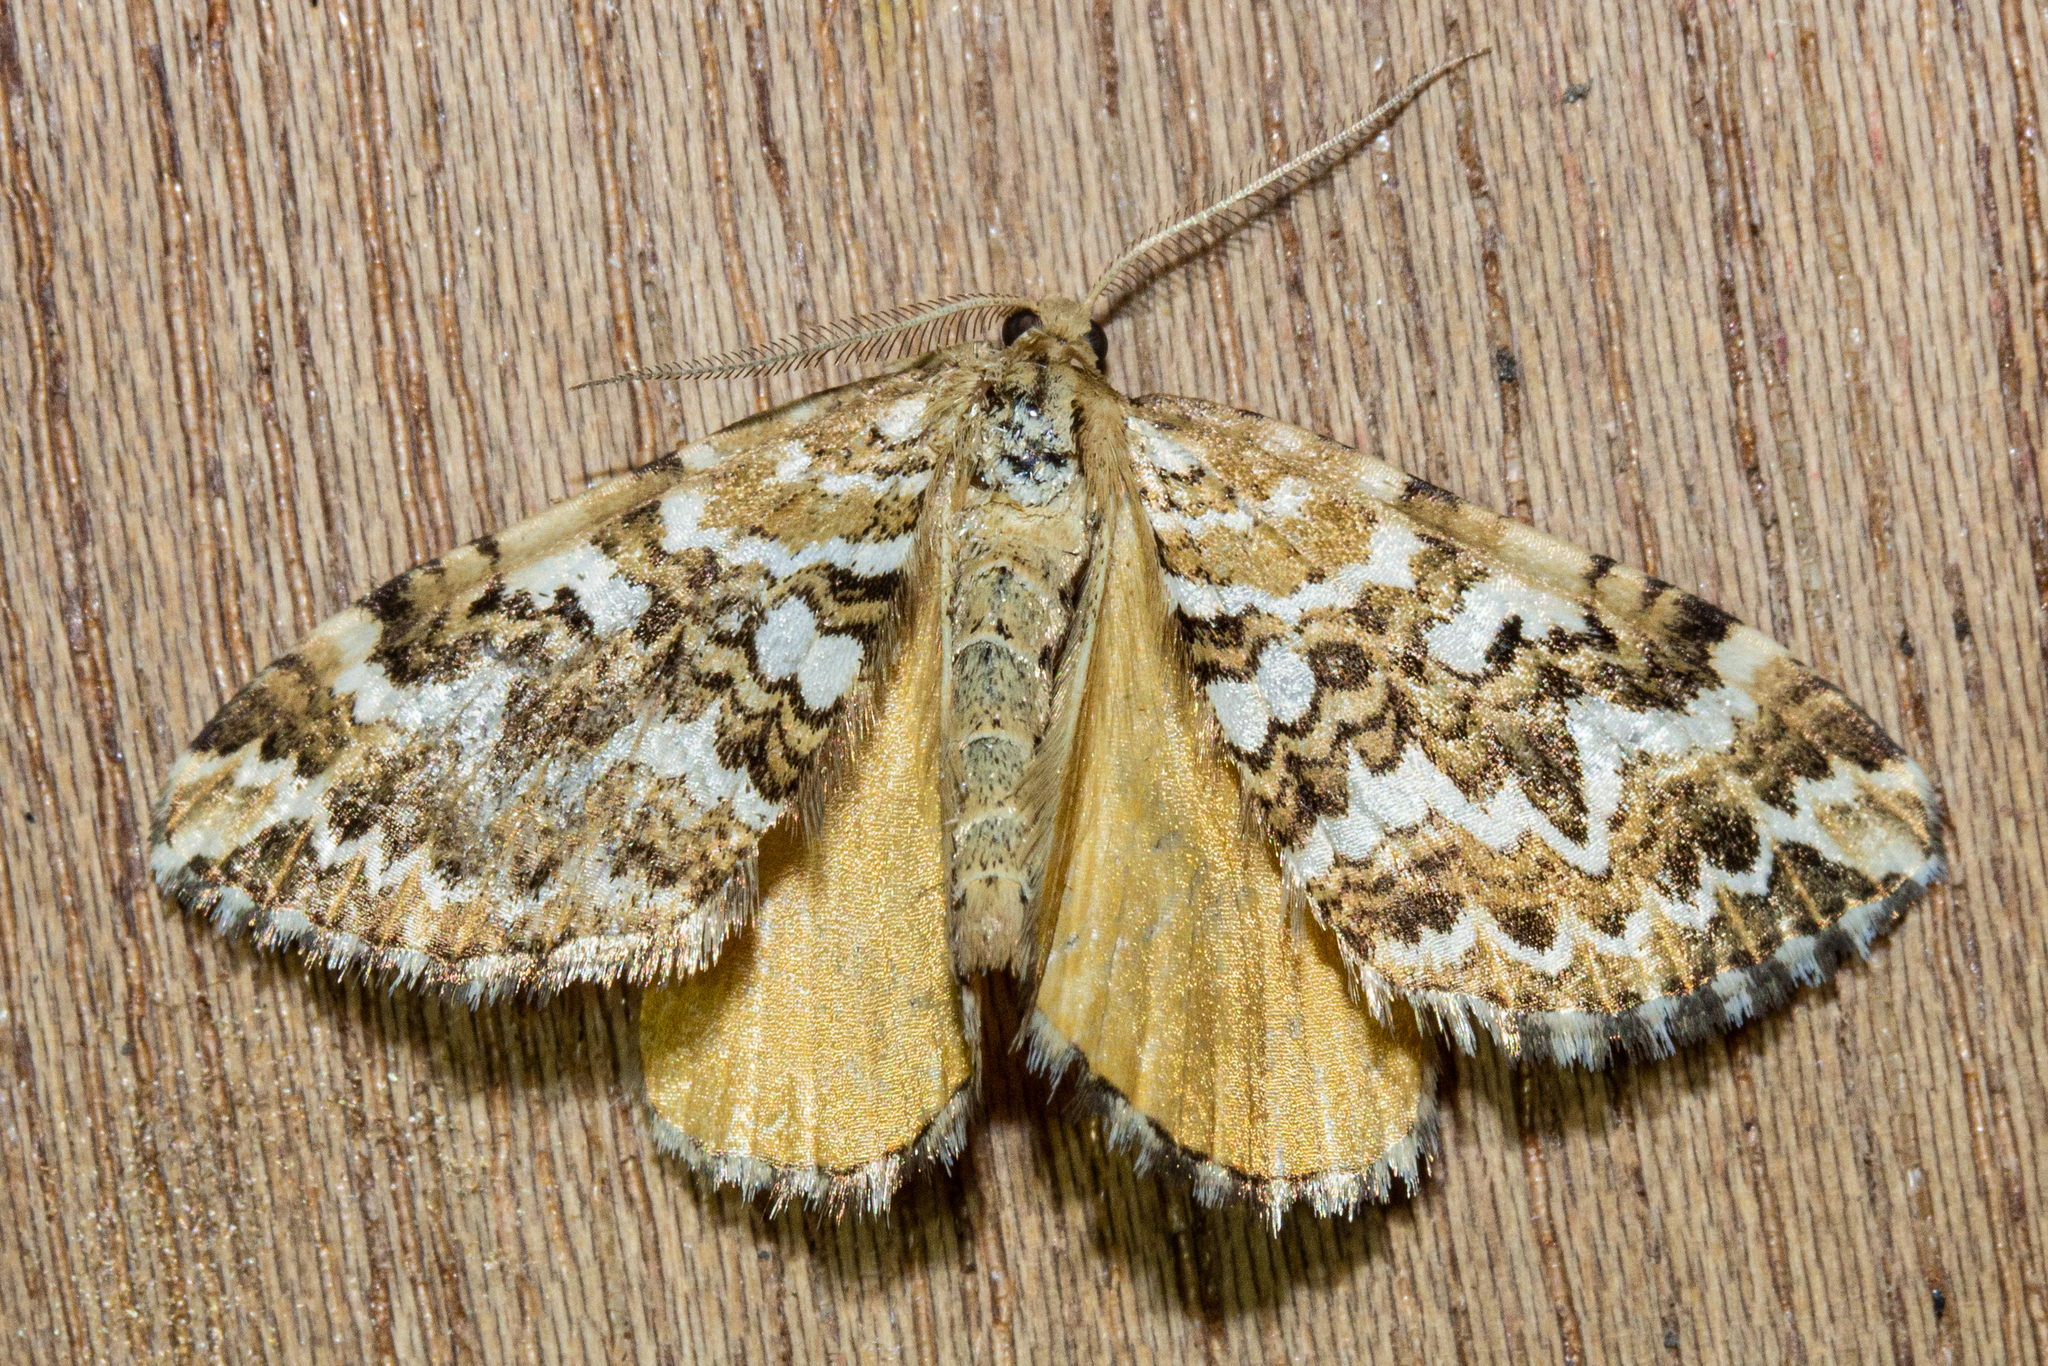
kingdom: Animalia
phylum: Arthropoda
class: Insecta
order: Lepidoptera
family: Geometridae
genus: Asaphodes
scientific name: Asaphodes clarata
